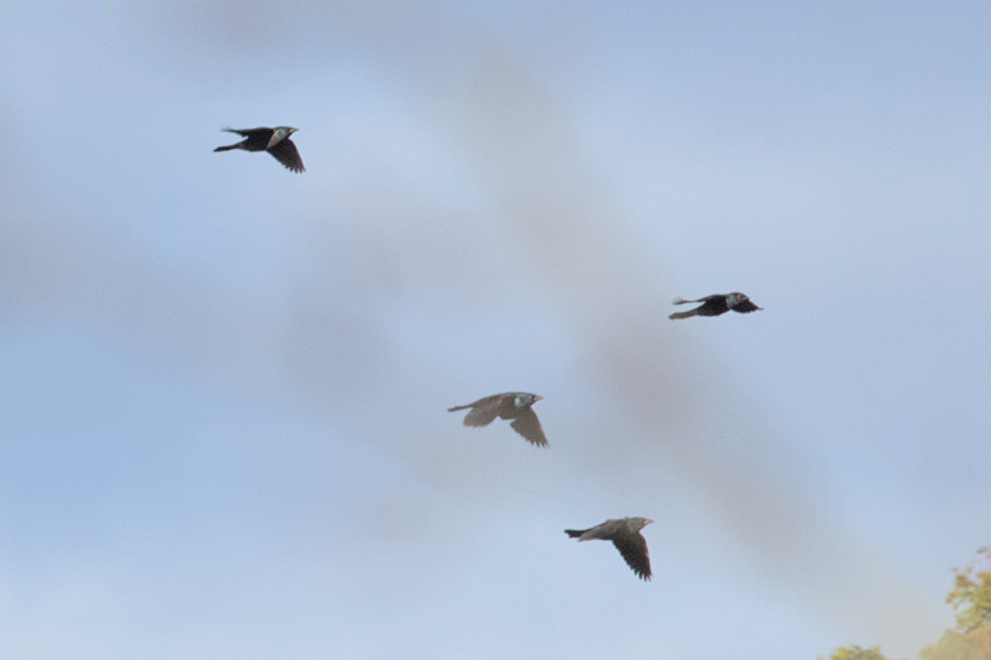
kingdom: Animalia
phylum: Chordata
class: Aves
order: Passeriformes
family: Icteridae
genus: Quiscalus
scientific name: Quiscalus quiscula
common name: Common grackle
